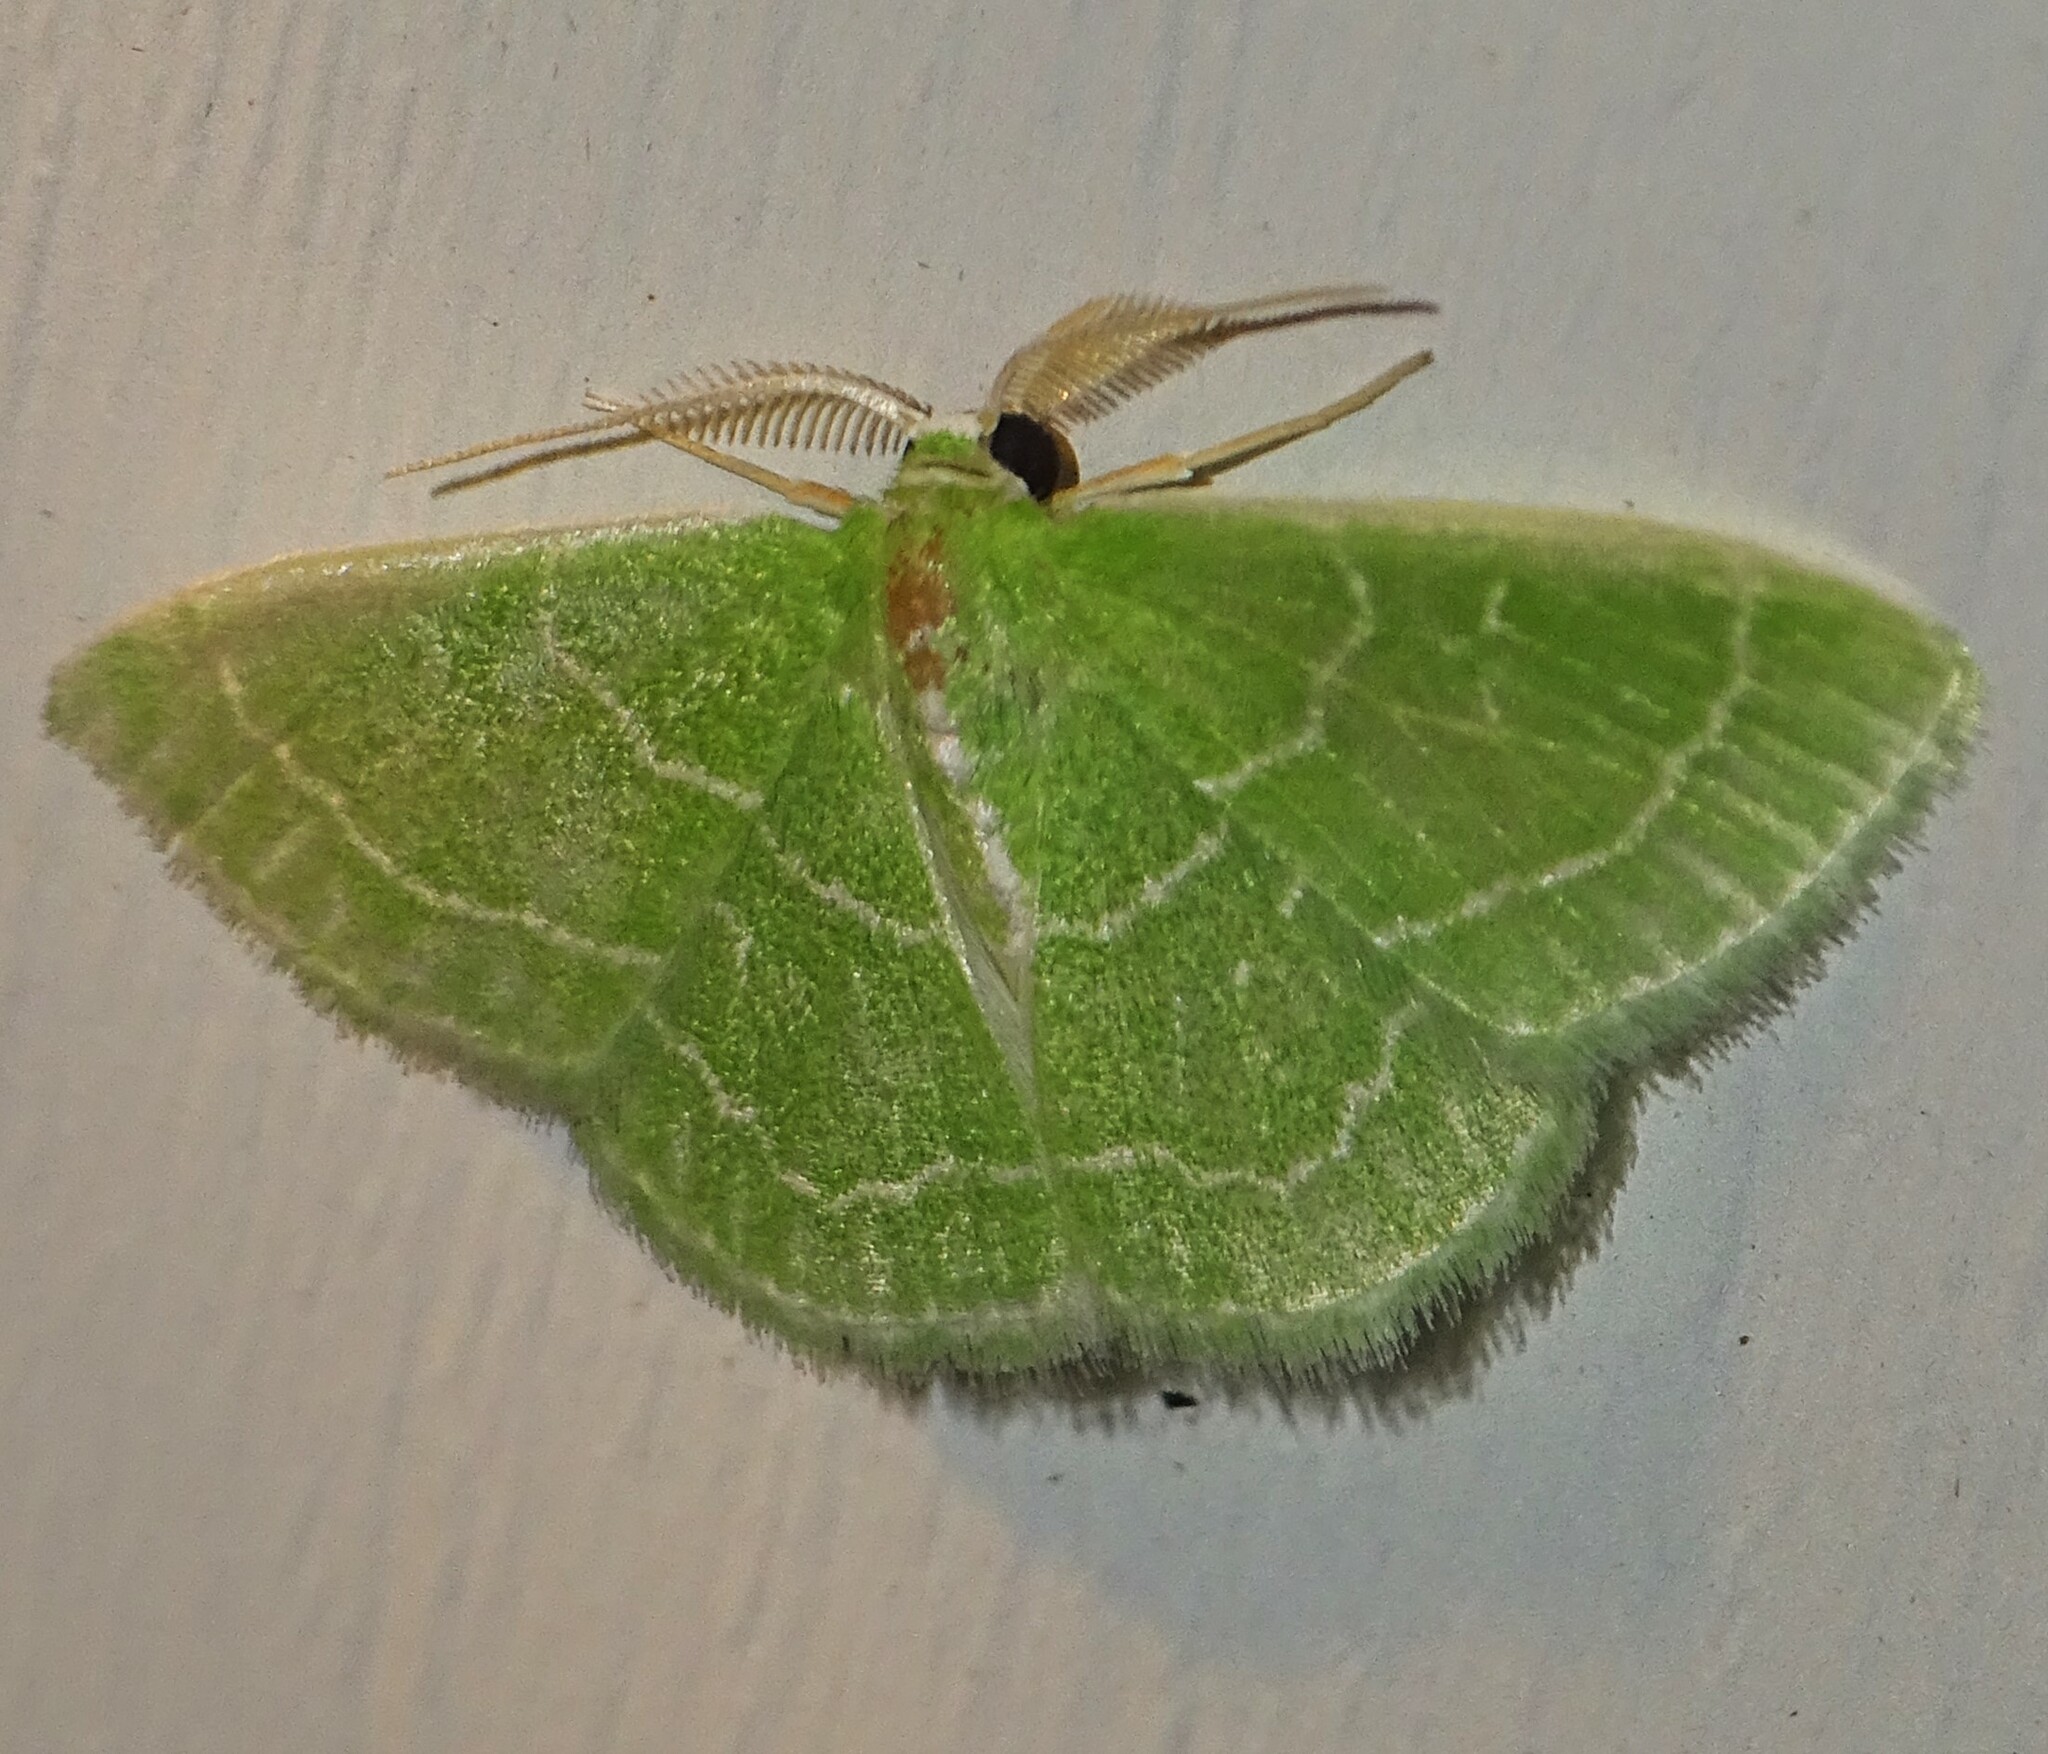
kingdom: Animalia
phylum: Arthropoda
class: Insecta
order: Lepidoptera
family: Geometridae
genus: Synchlora
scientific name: Synchlora aerata
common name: Wavy-lined emerald
